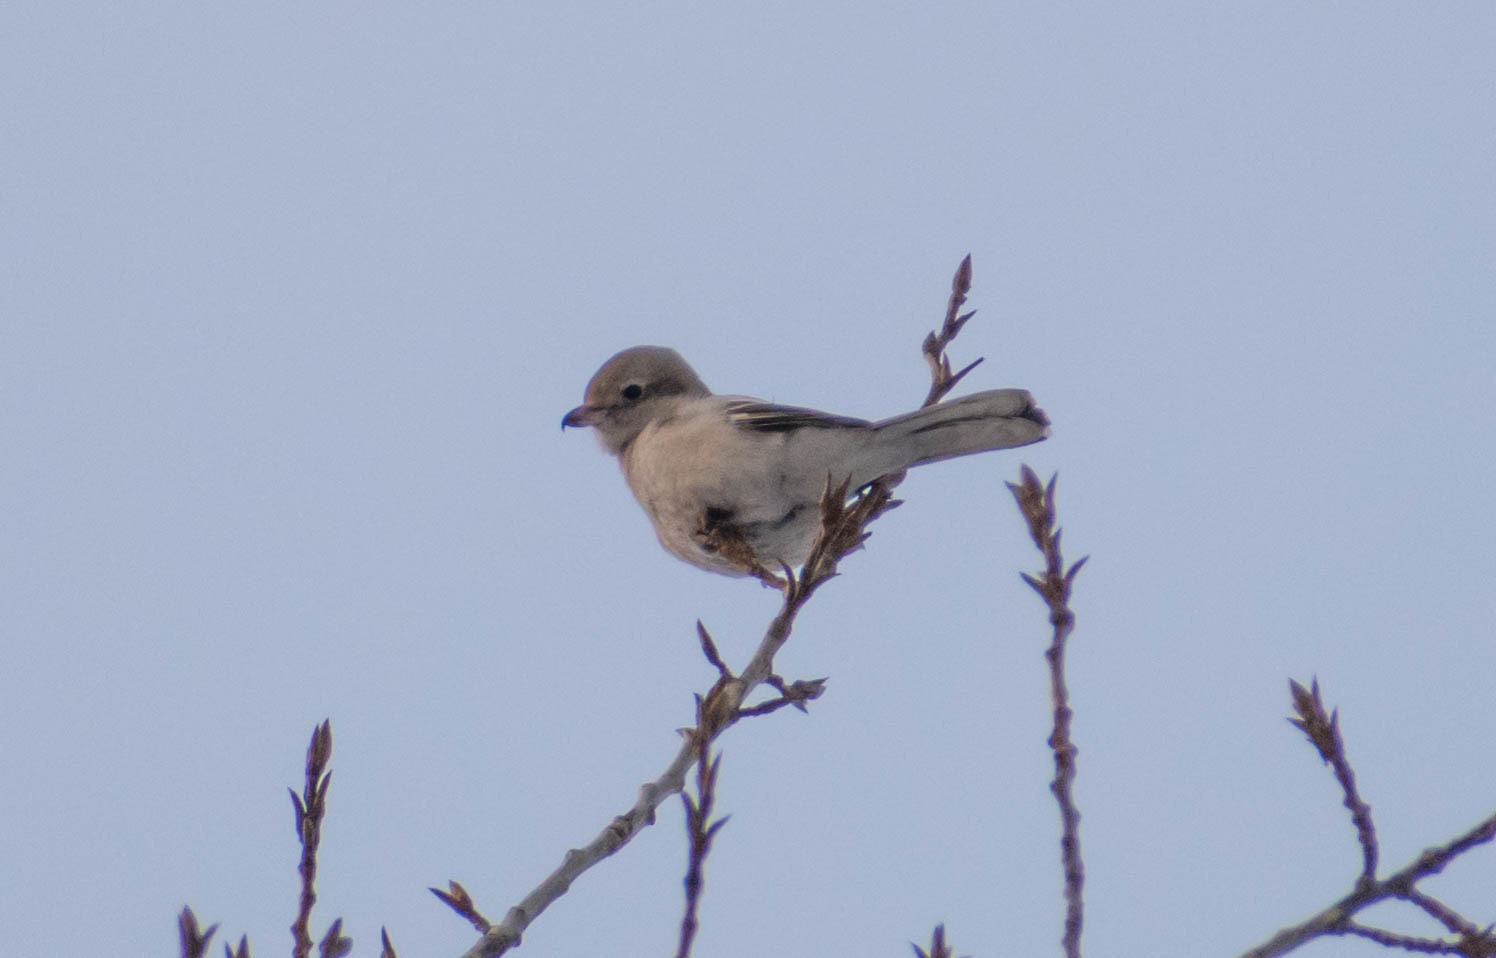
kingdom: Animalia
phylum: Chordata
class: Aves
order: Passeriformes
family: Laniidae
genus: Lanius
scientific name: Lanius excubitor
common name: Great grey shrike
